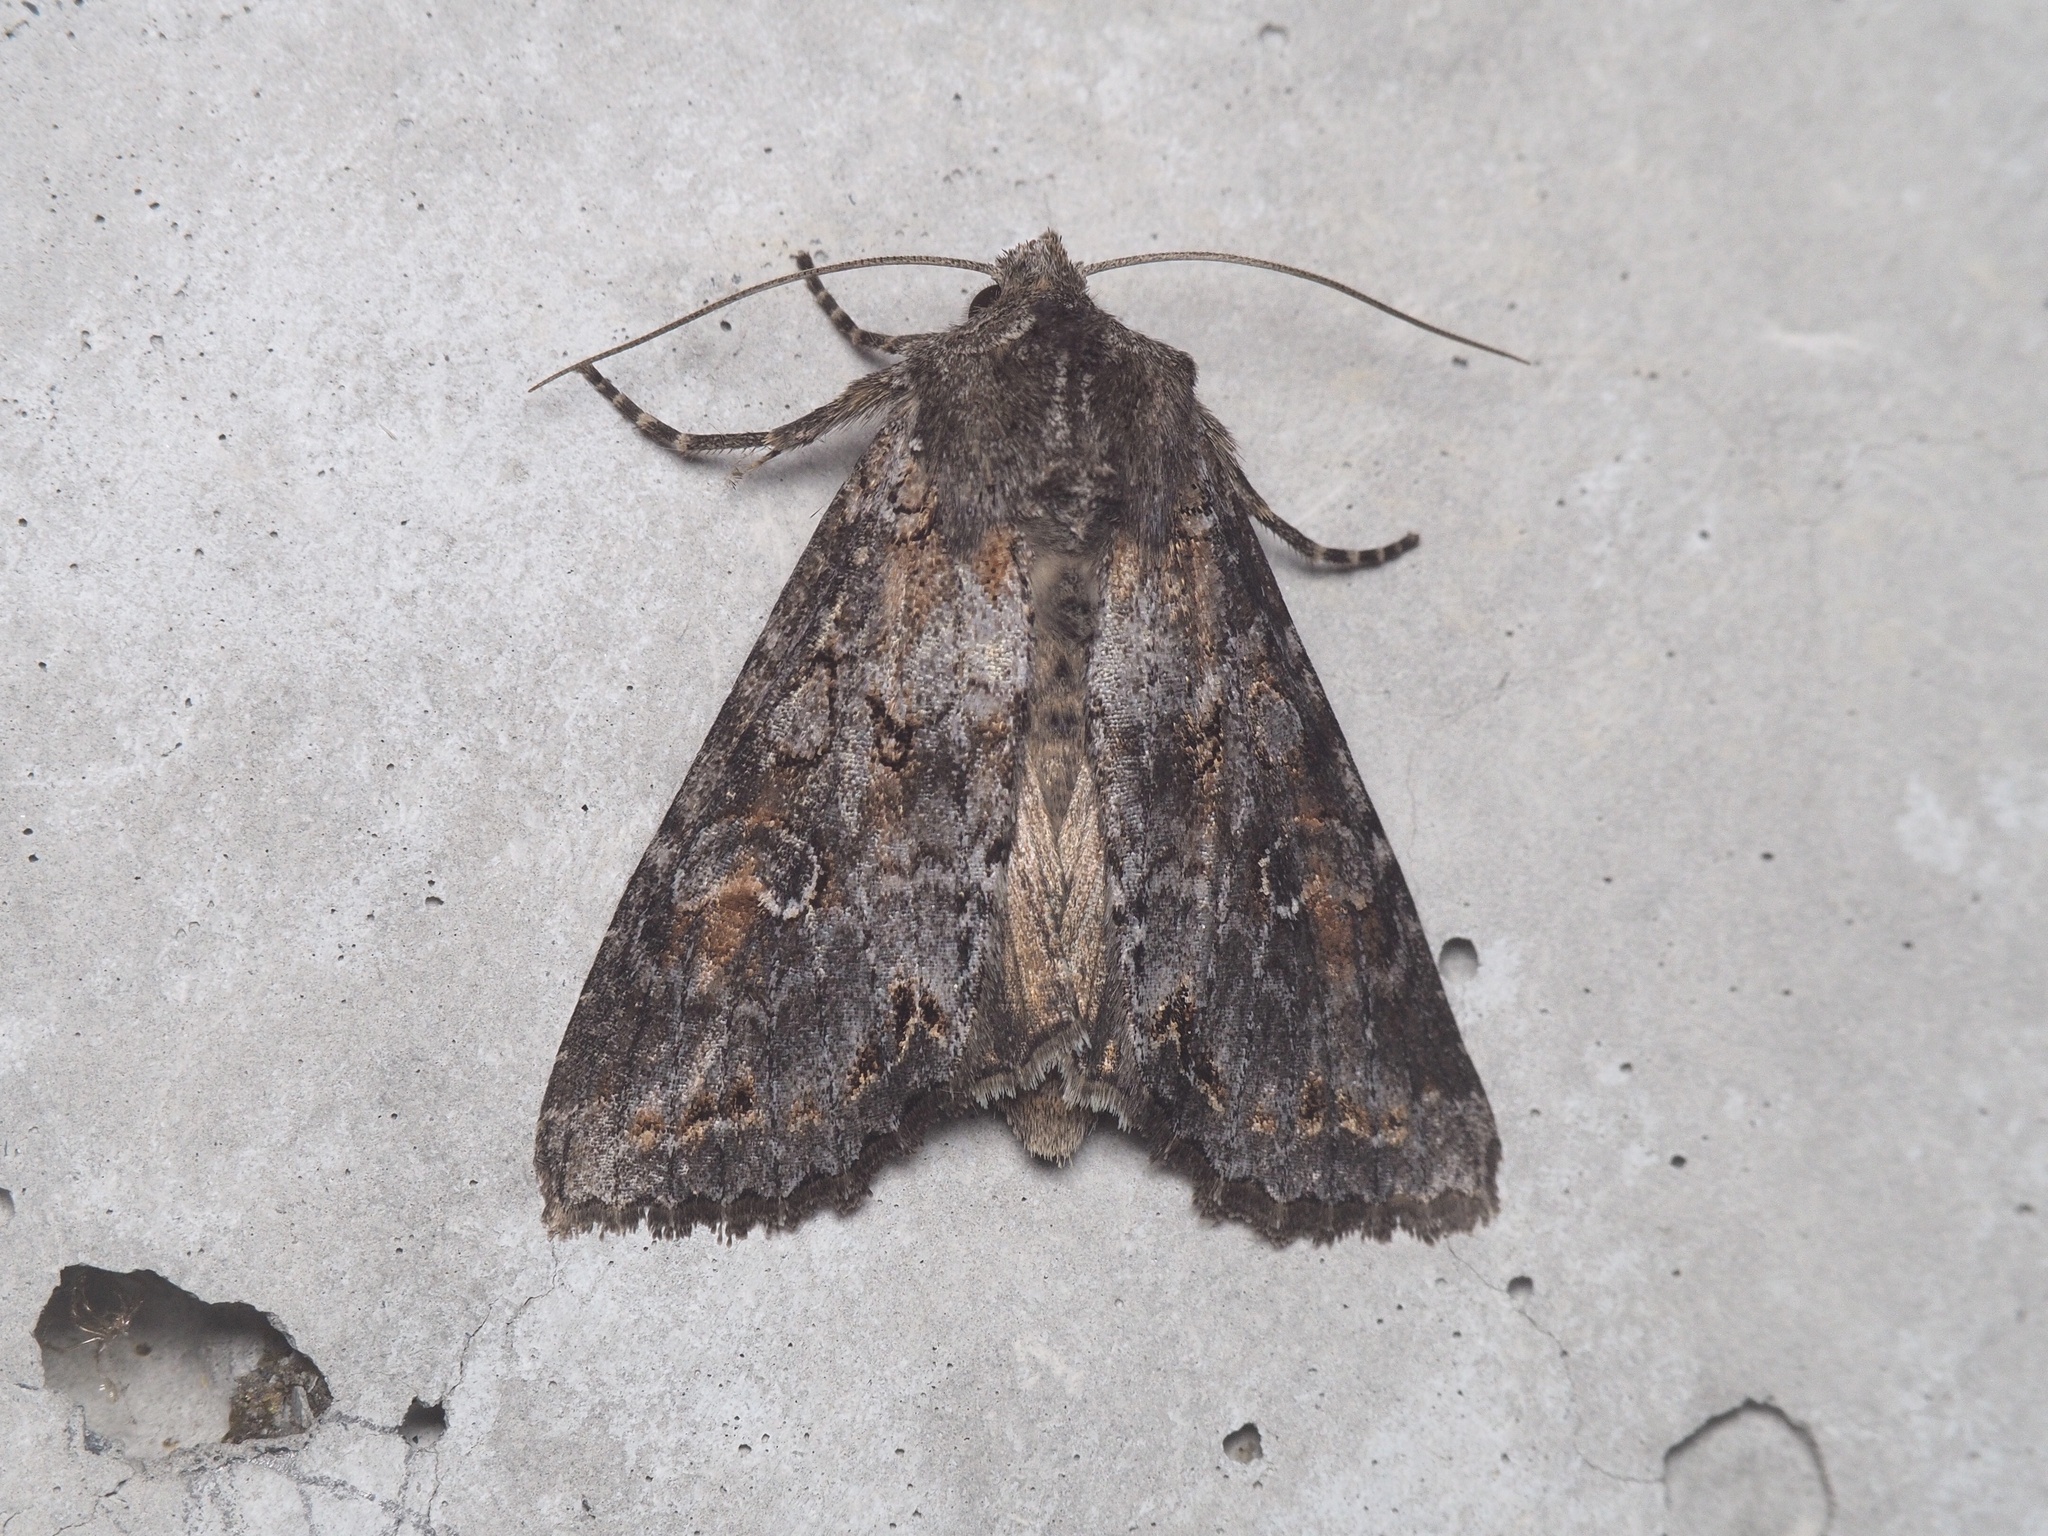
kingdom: Animalia
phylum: Arthropoda
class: Insecta
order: Lepidoptera
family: Noctuidae
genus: Polia
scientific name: Polia bombycina
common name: Pale shining brown
